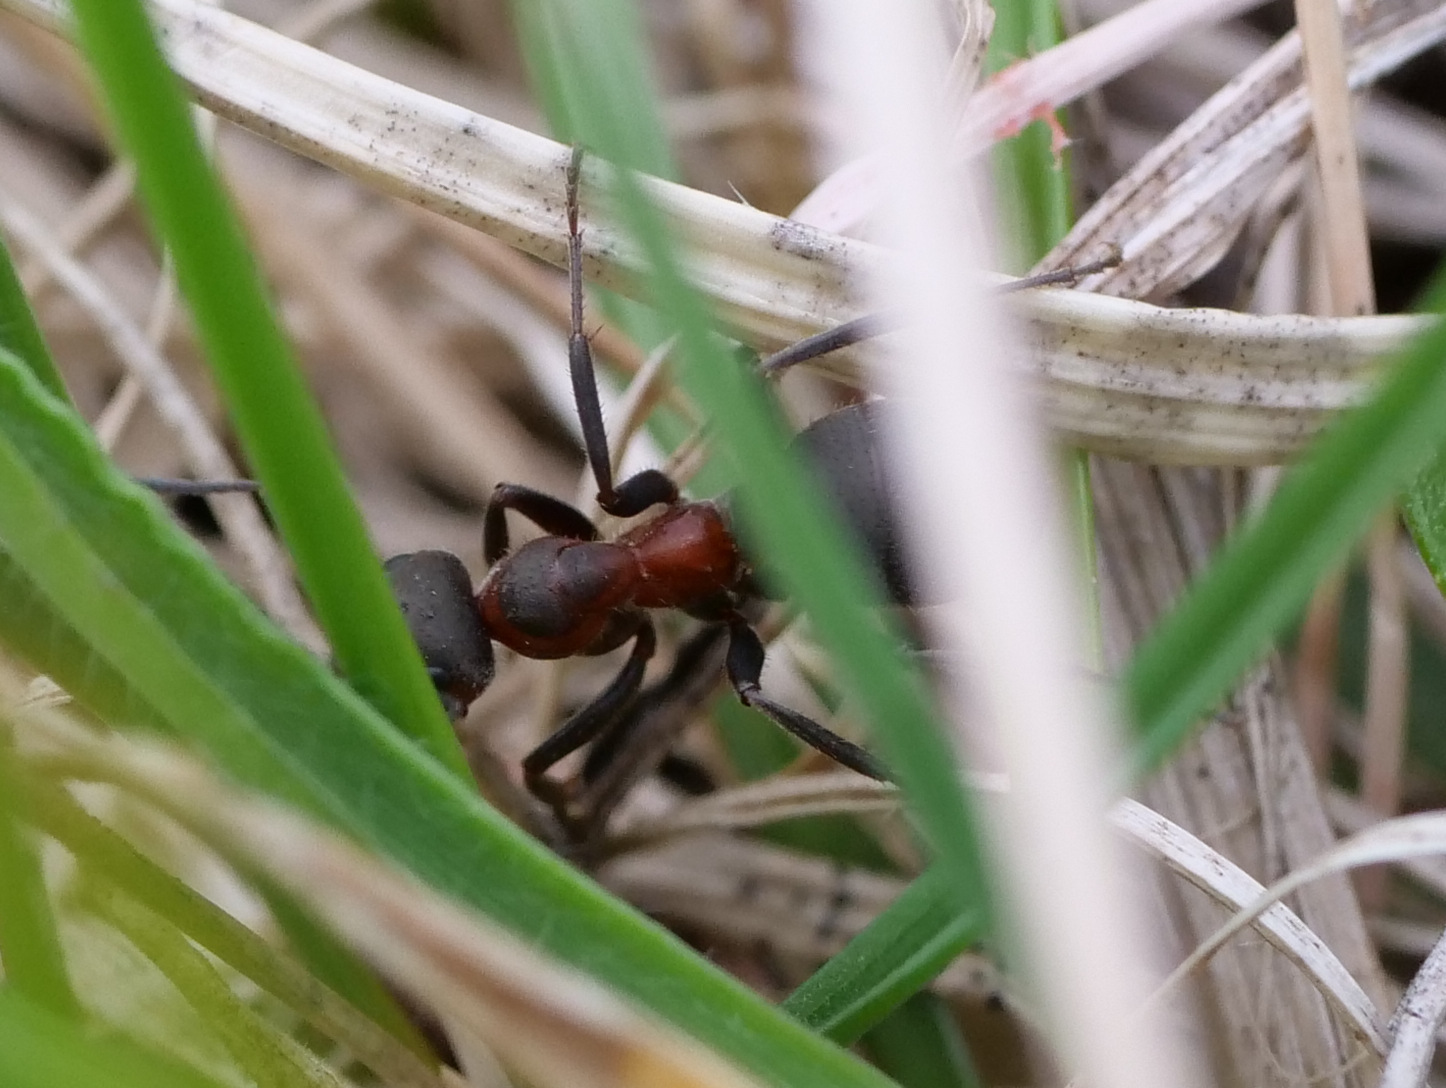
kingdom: Animalia
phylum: Arthropoda
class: Insecta
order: Hymenoptera
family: Formicidae
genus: Formica
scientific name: Formica pratensis
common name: European red wood ant
